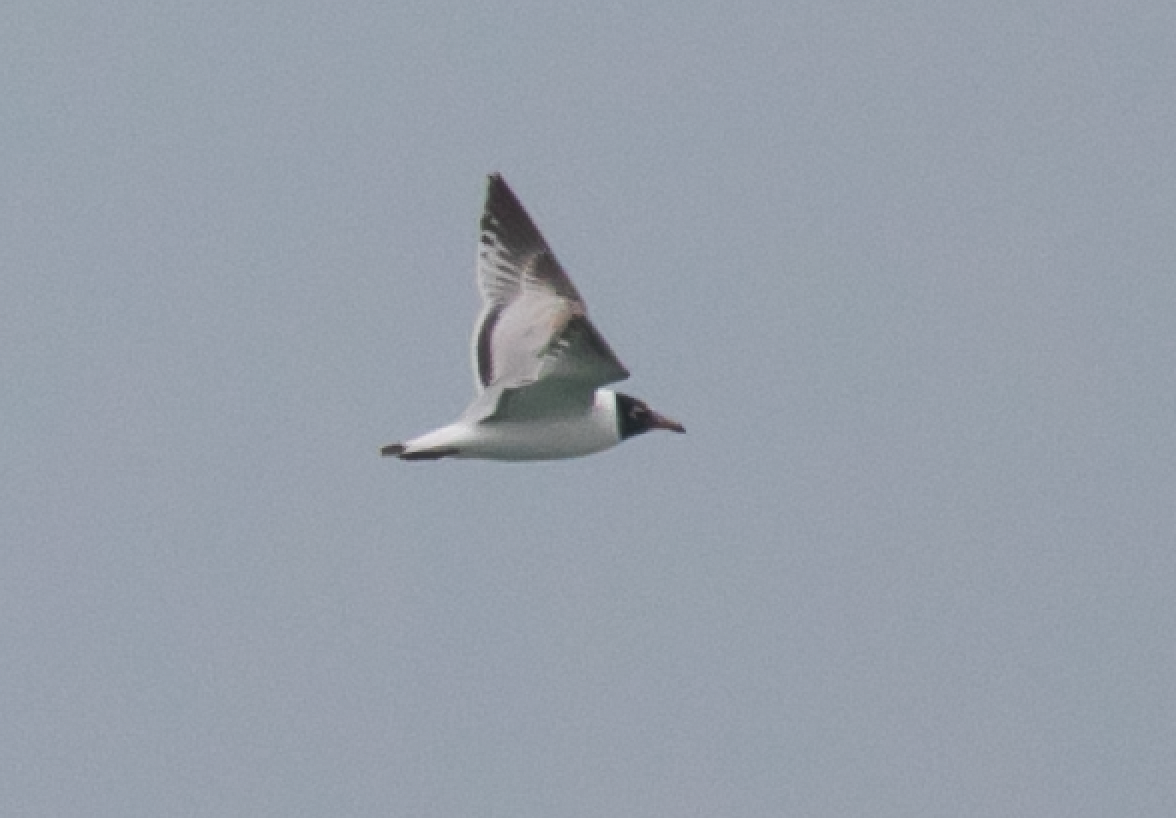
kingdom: Animalia
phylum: Chordata
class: Aves
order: Charadriiformes
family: Laridae
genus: Ichthyaetus
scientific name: Ichthyaetus melanocephalus
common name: Mediterranean gull
